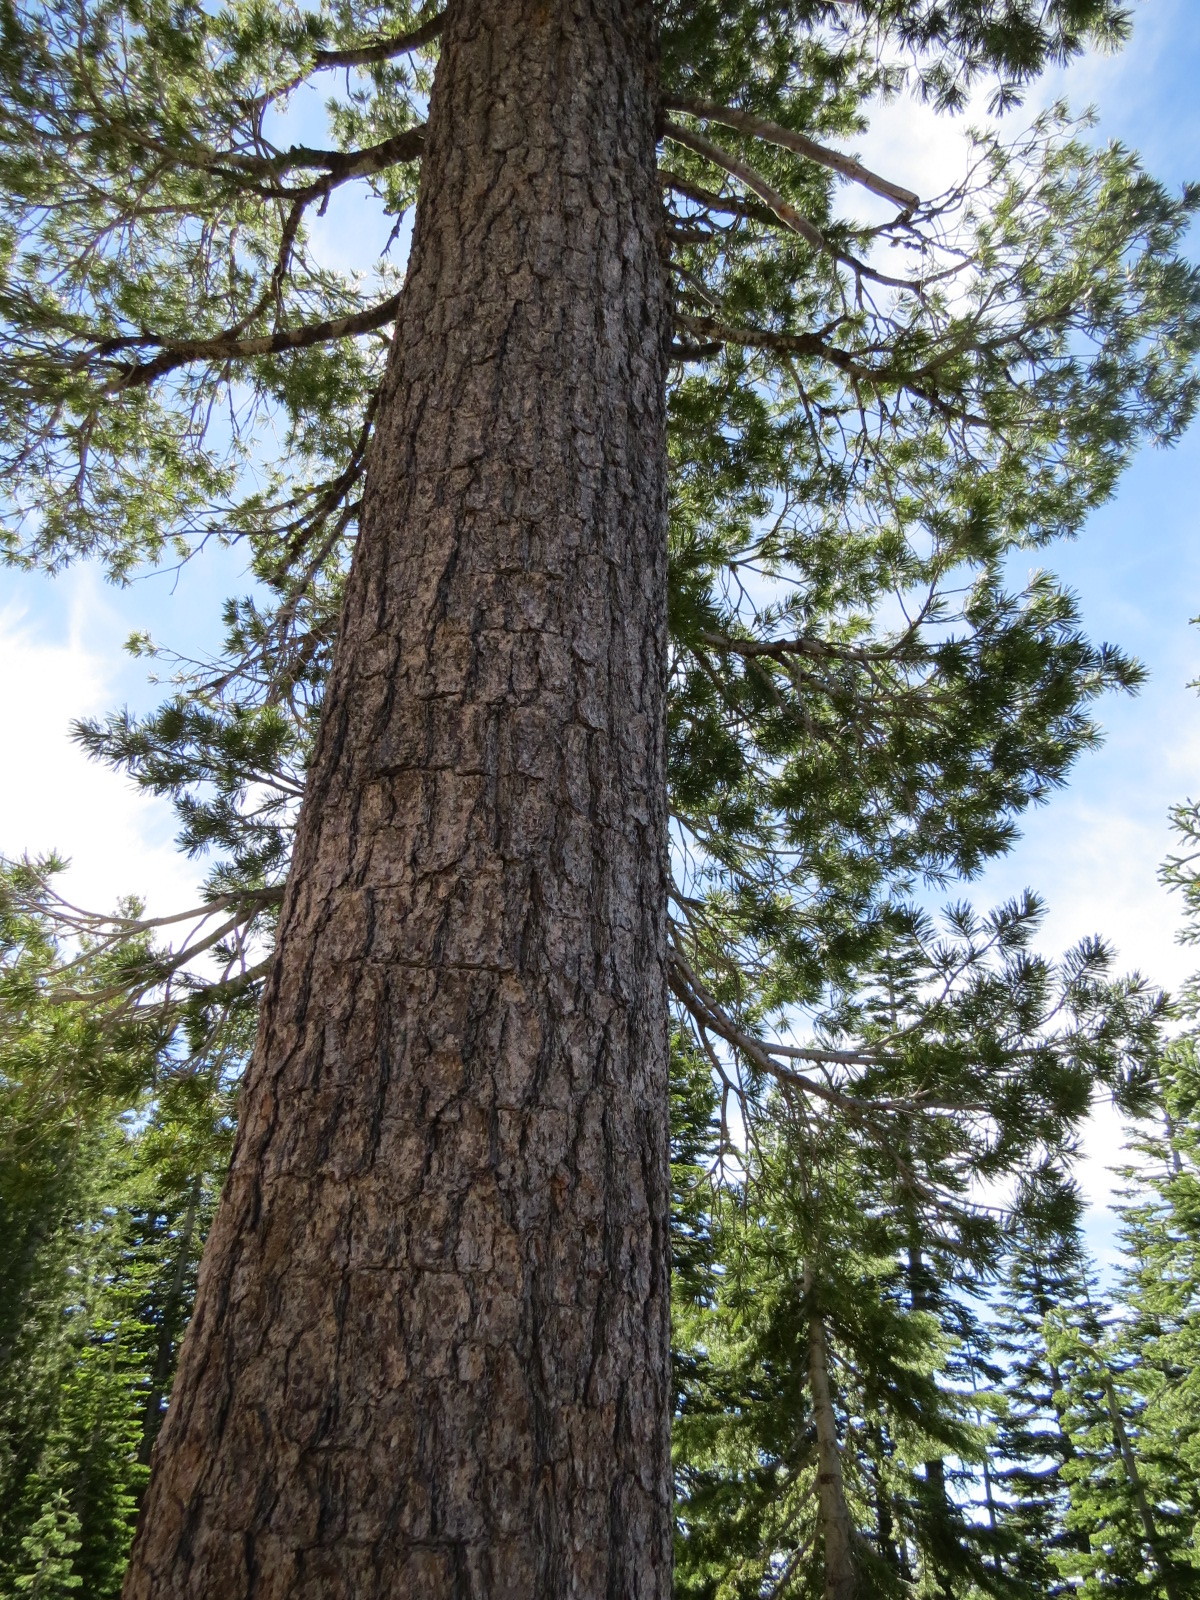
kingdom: Plantae
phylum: Tracheophyta
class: Pinopsida
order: Pinales
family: Pinaceae
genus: Pinus
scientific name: Pinus monticola
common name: Western white pine
